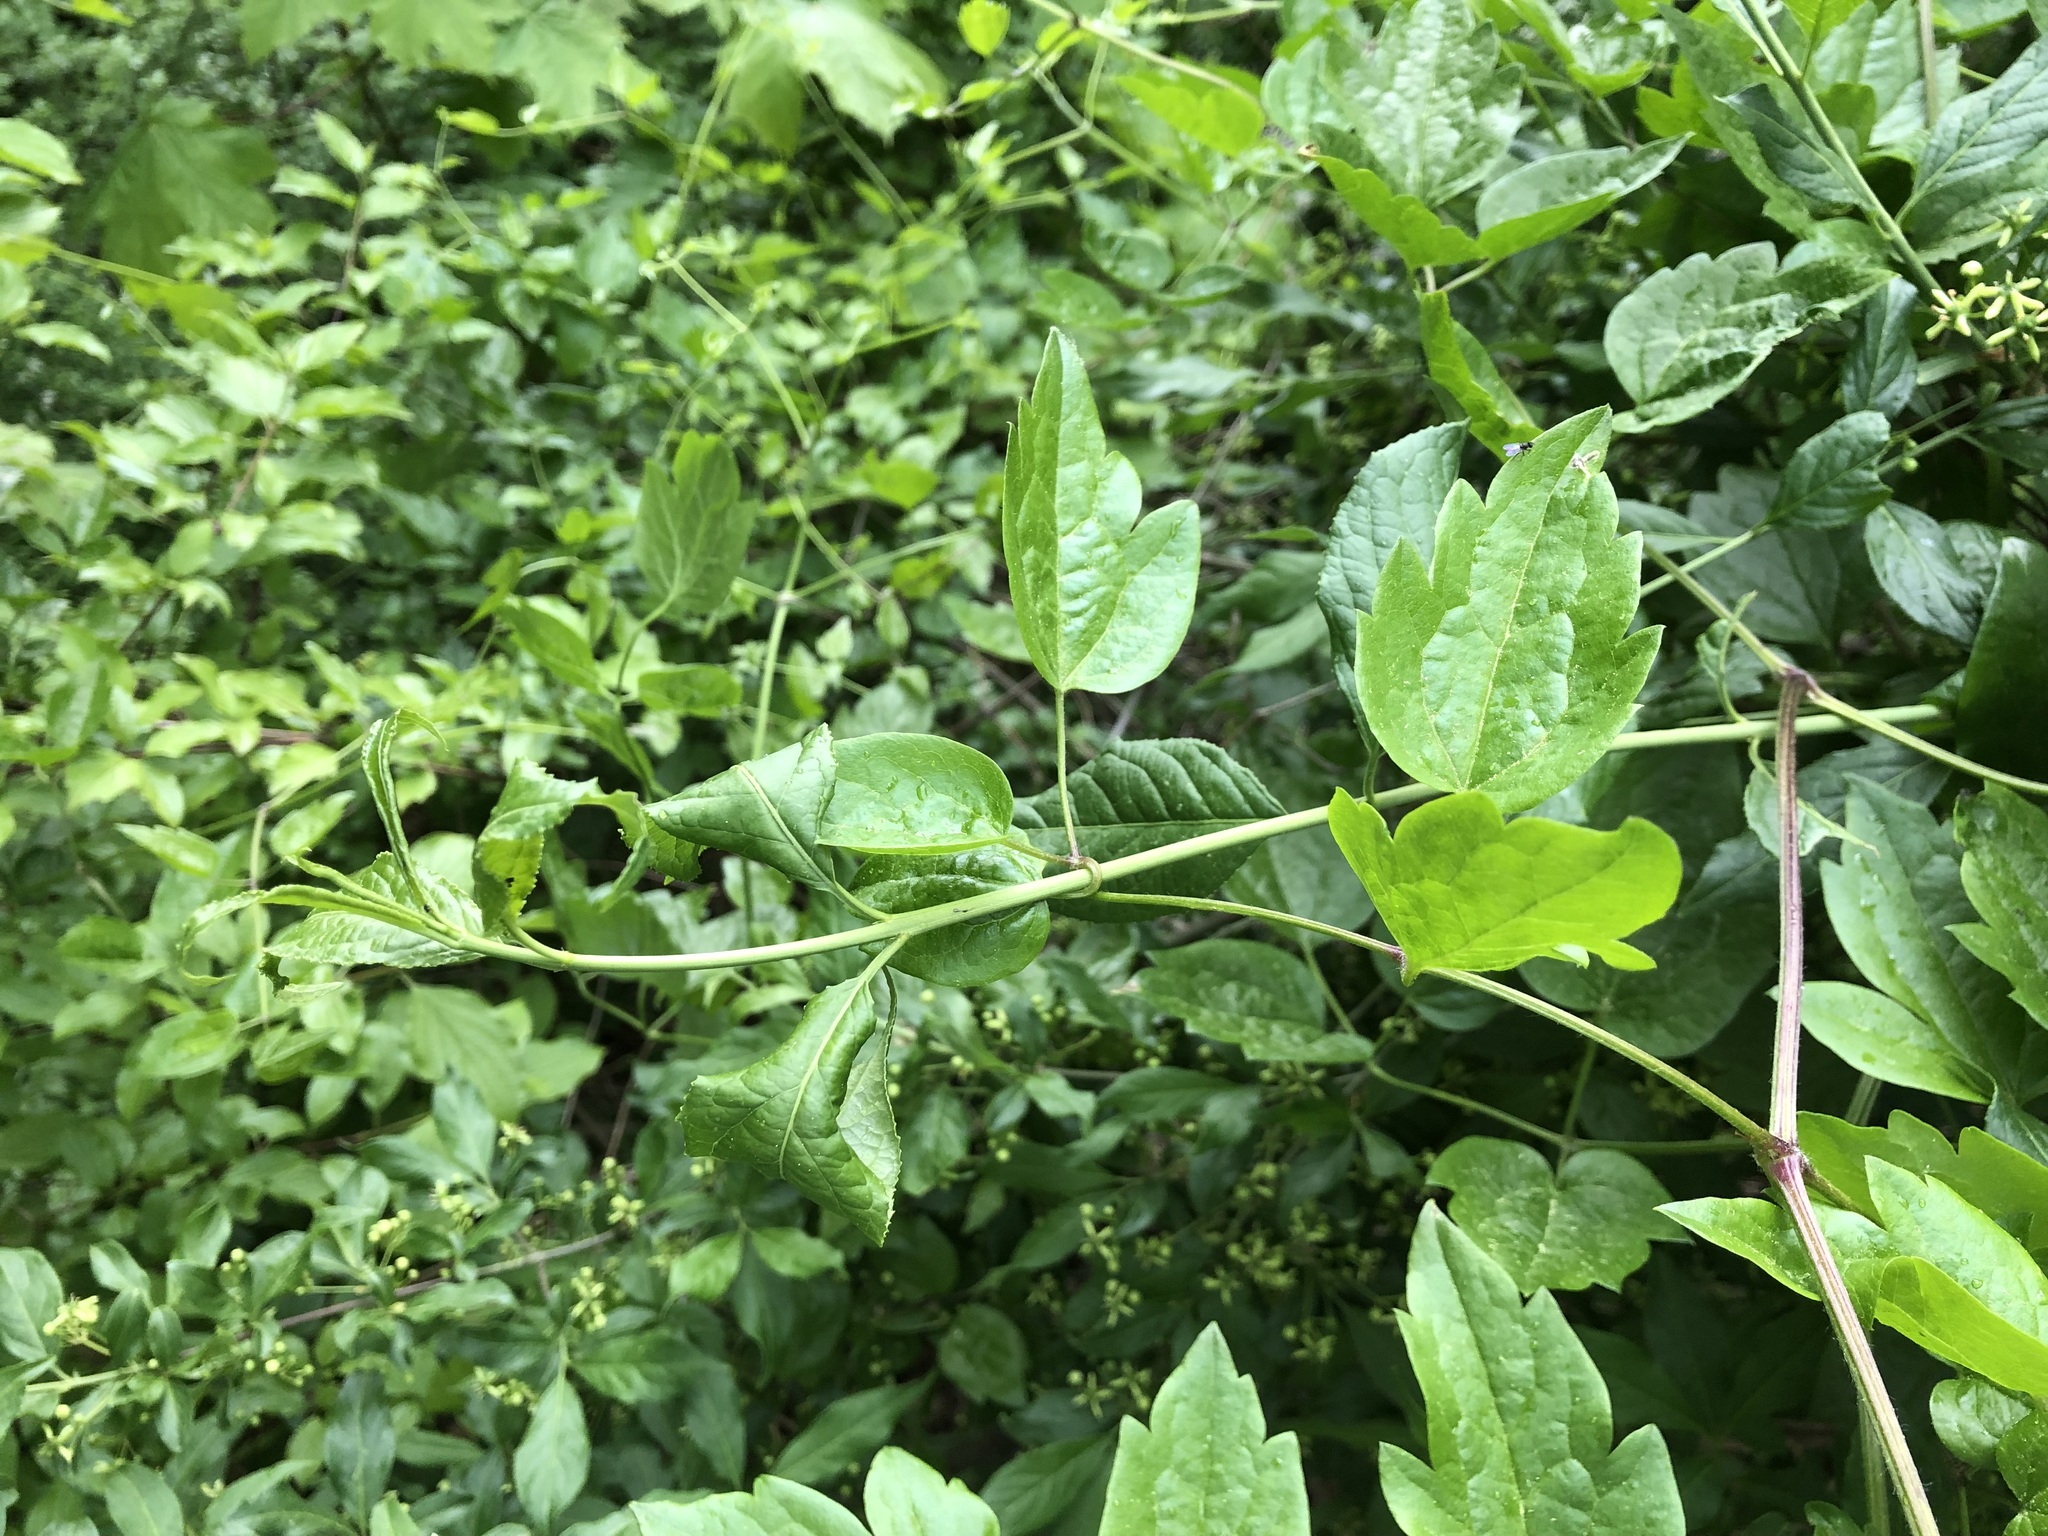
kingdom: Plantae
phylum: Tracheophyta
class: Magnoliopsida
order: Ranunculales
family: Ranunculaceae
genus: Clematis
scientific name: Clematis vitalba
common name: Evergreen clematis
